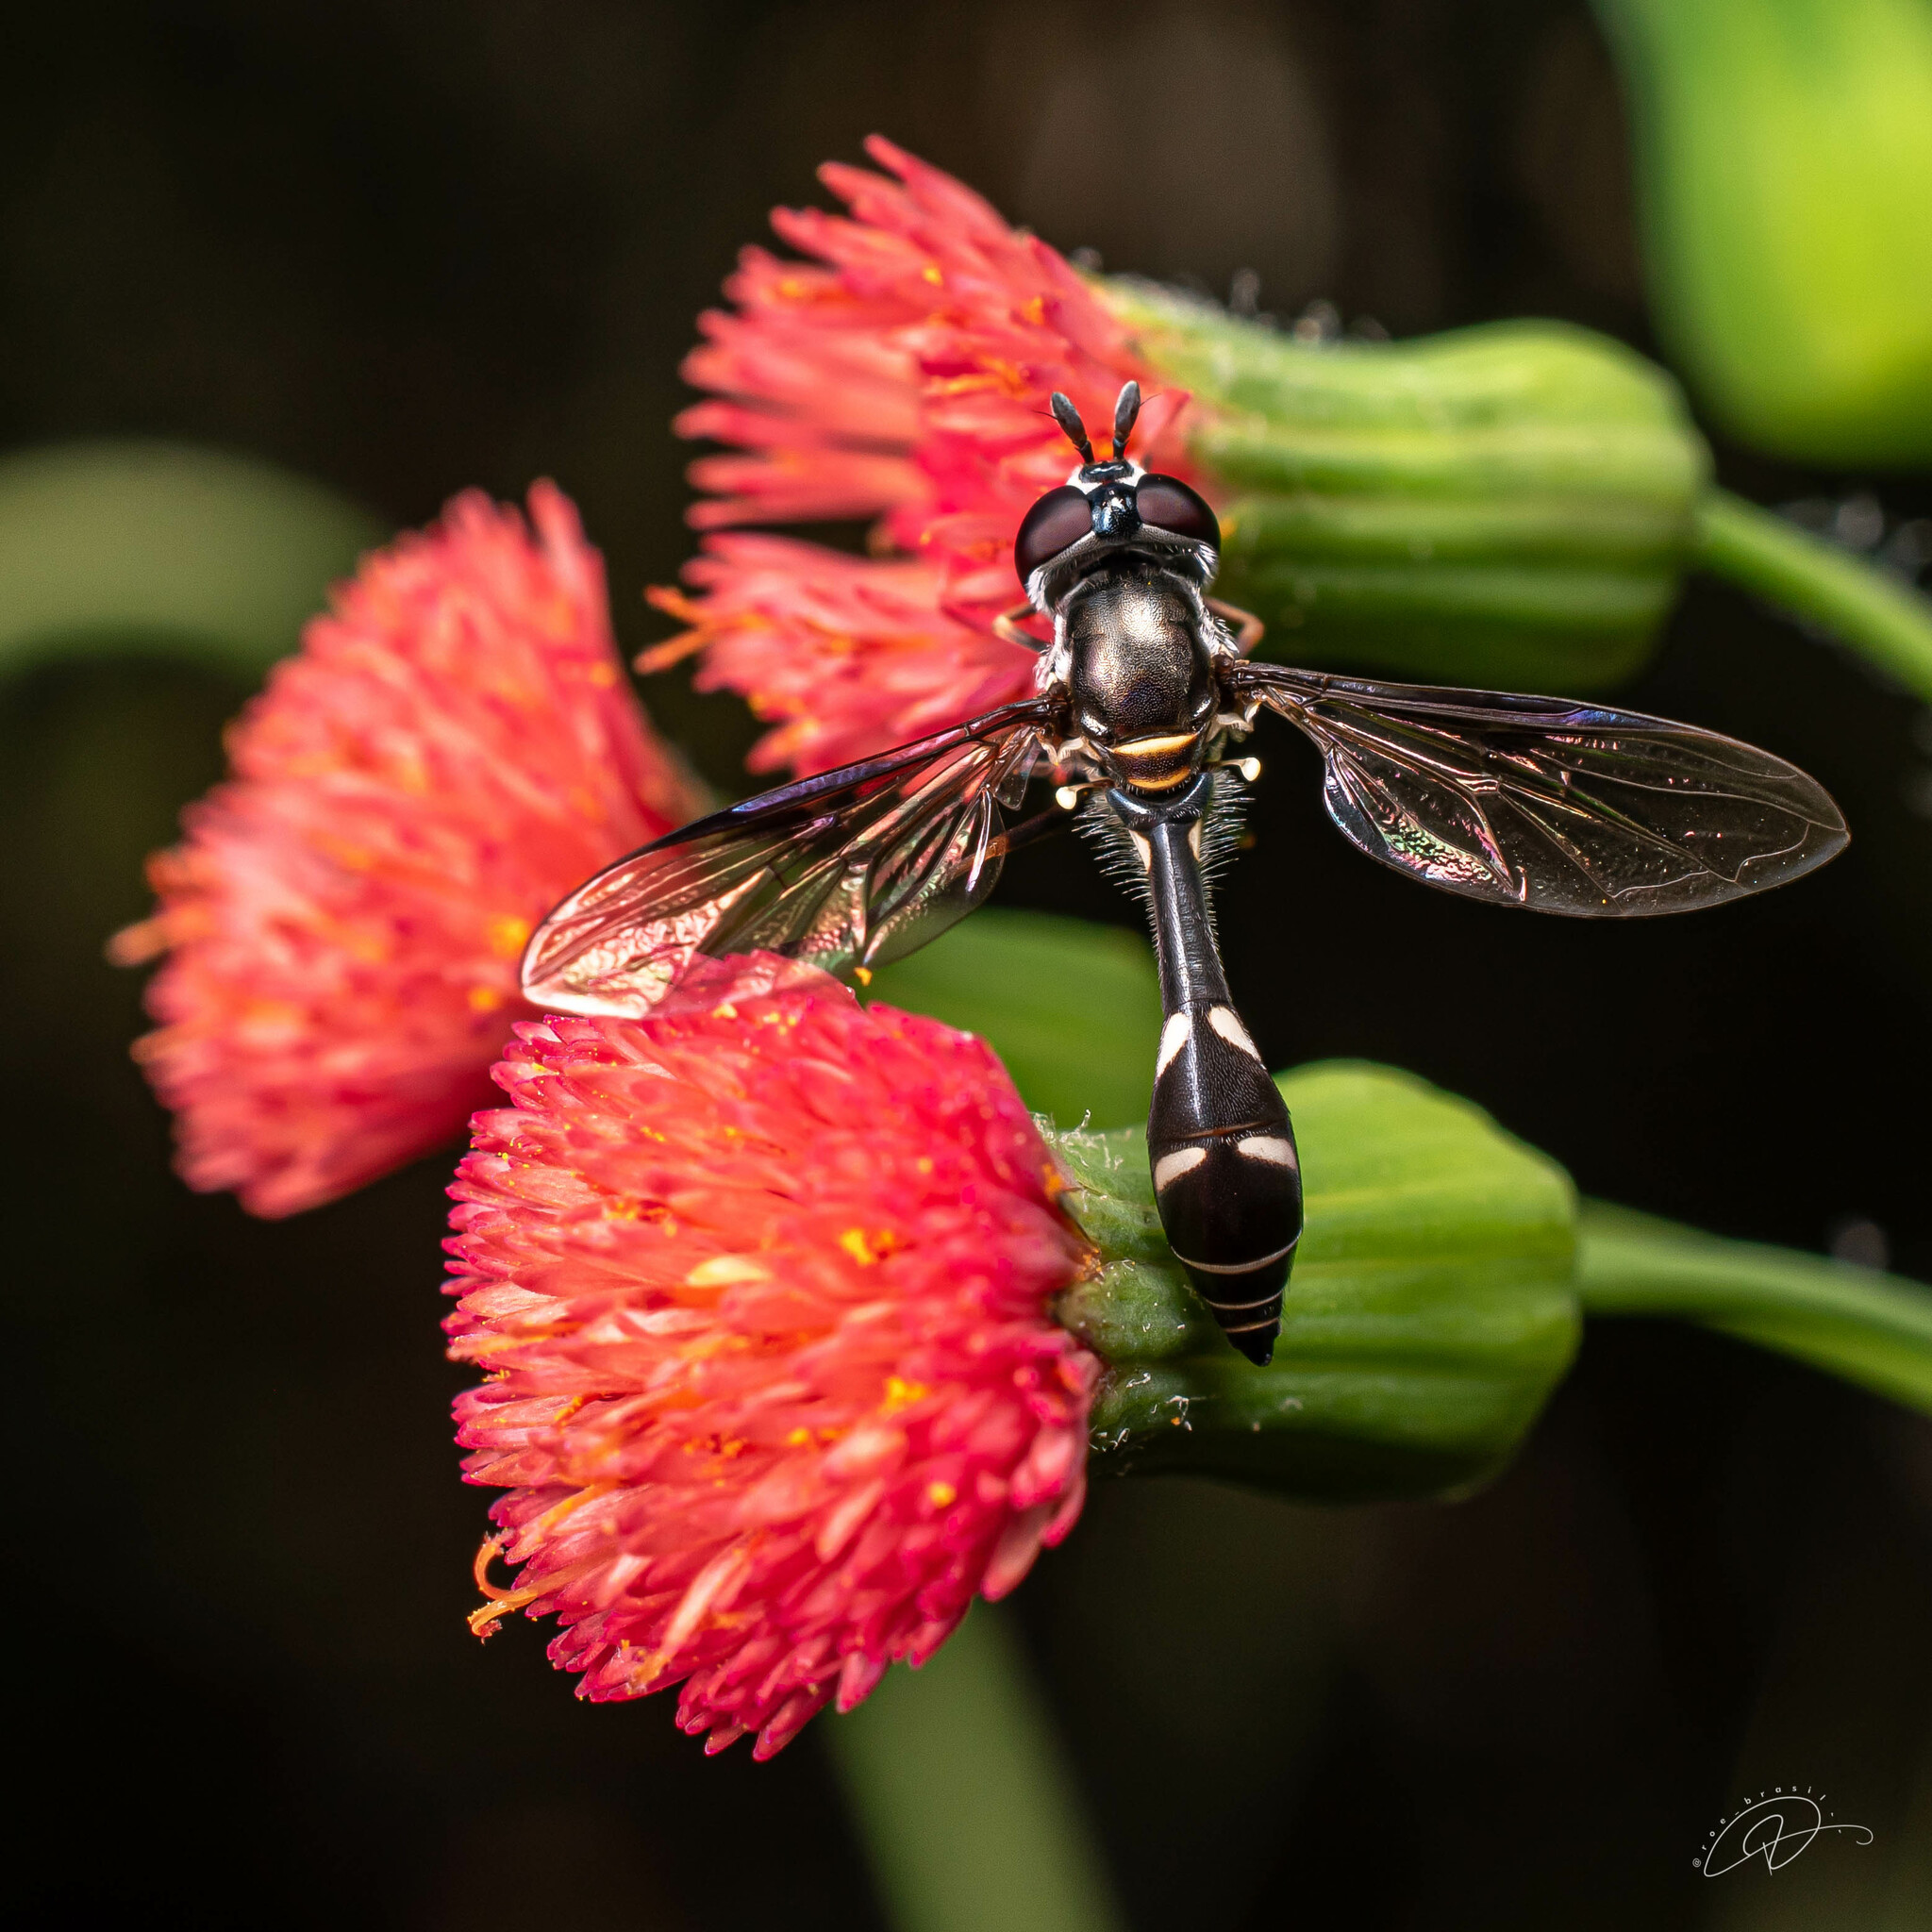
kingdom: Animalia
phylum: Arthropoda
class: Insecta
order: Diptera
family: Syrphidae
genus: Dioprosopa
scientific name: Dioprosopa clavatus
